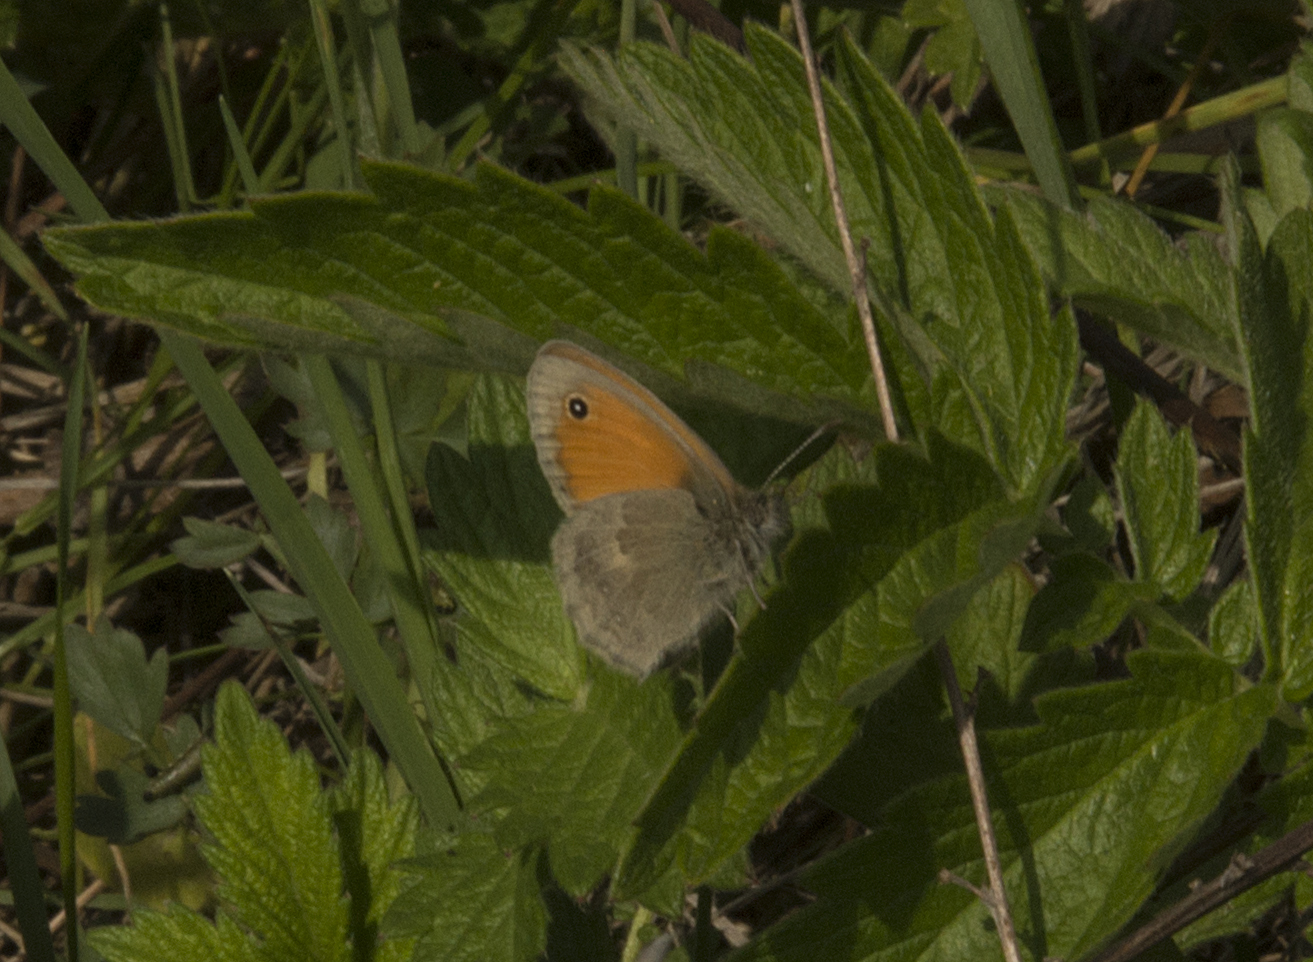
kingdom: Animalia
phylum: Arthropoda
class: Insecta
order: Lepidoptera
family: Nymphalidae
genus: Coenonympha
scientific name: Coenonympha pamphilus
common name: Small heath
